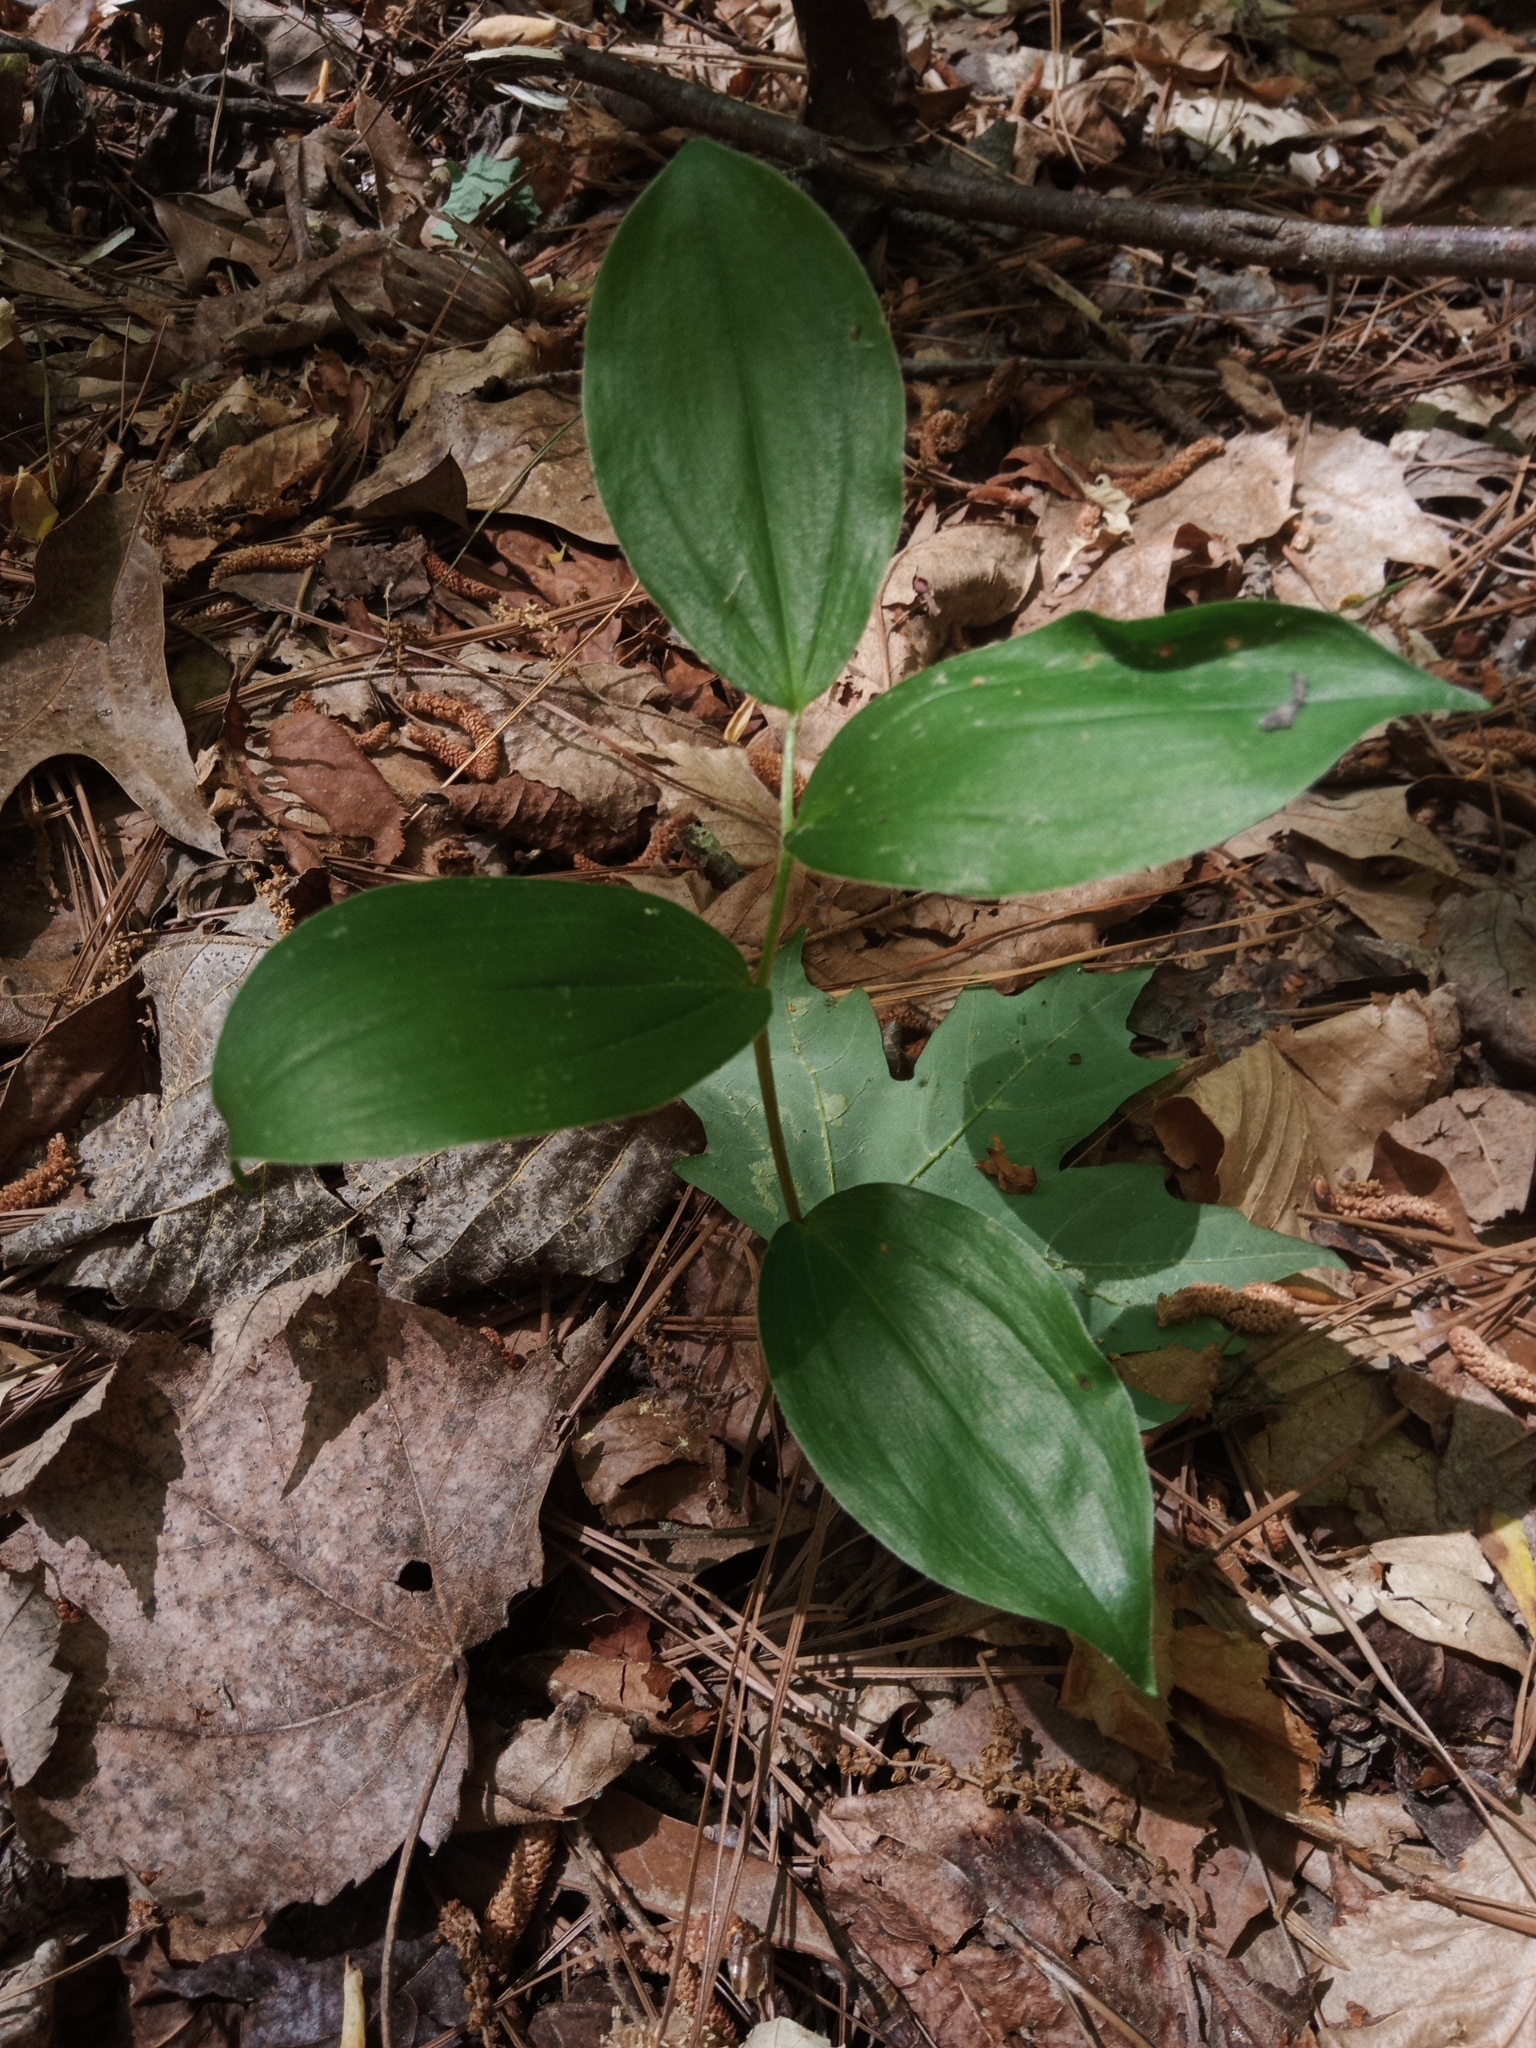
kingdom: Plantae
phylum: Tracheophyta
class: Liliopsida
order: Asparagales
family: Asparagaceae
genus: Maianthemum
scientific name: Maianthemum racemosum
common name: False spikenard
